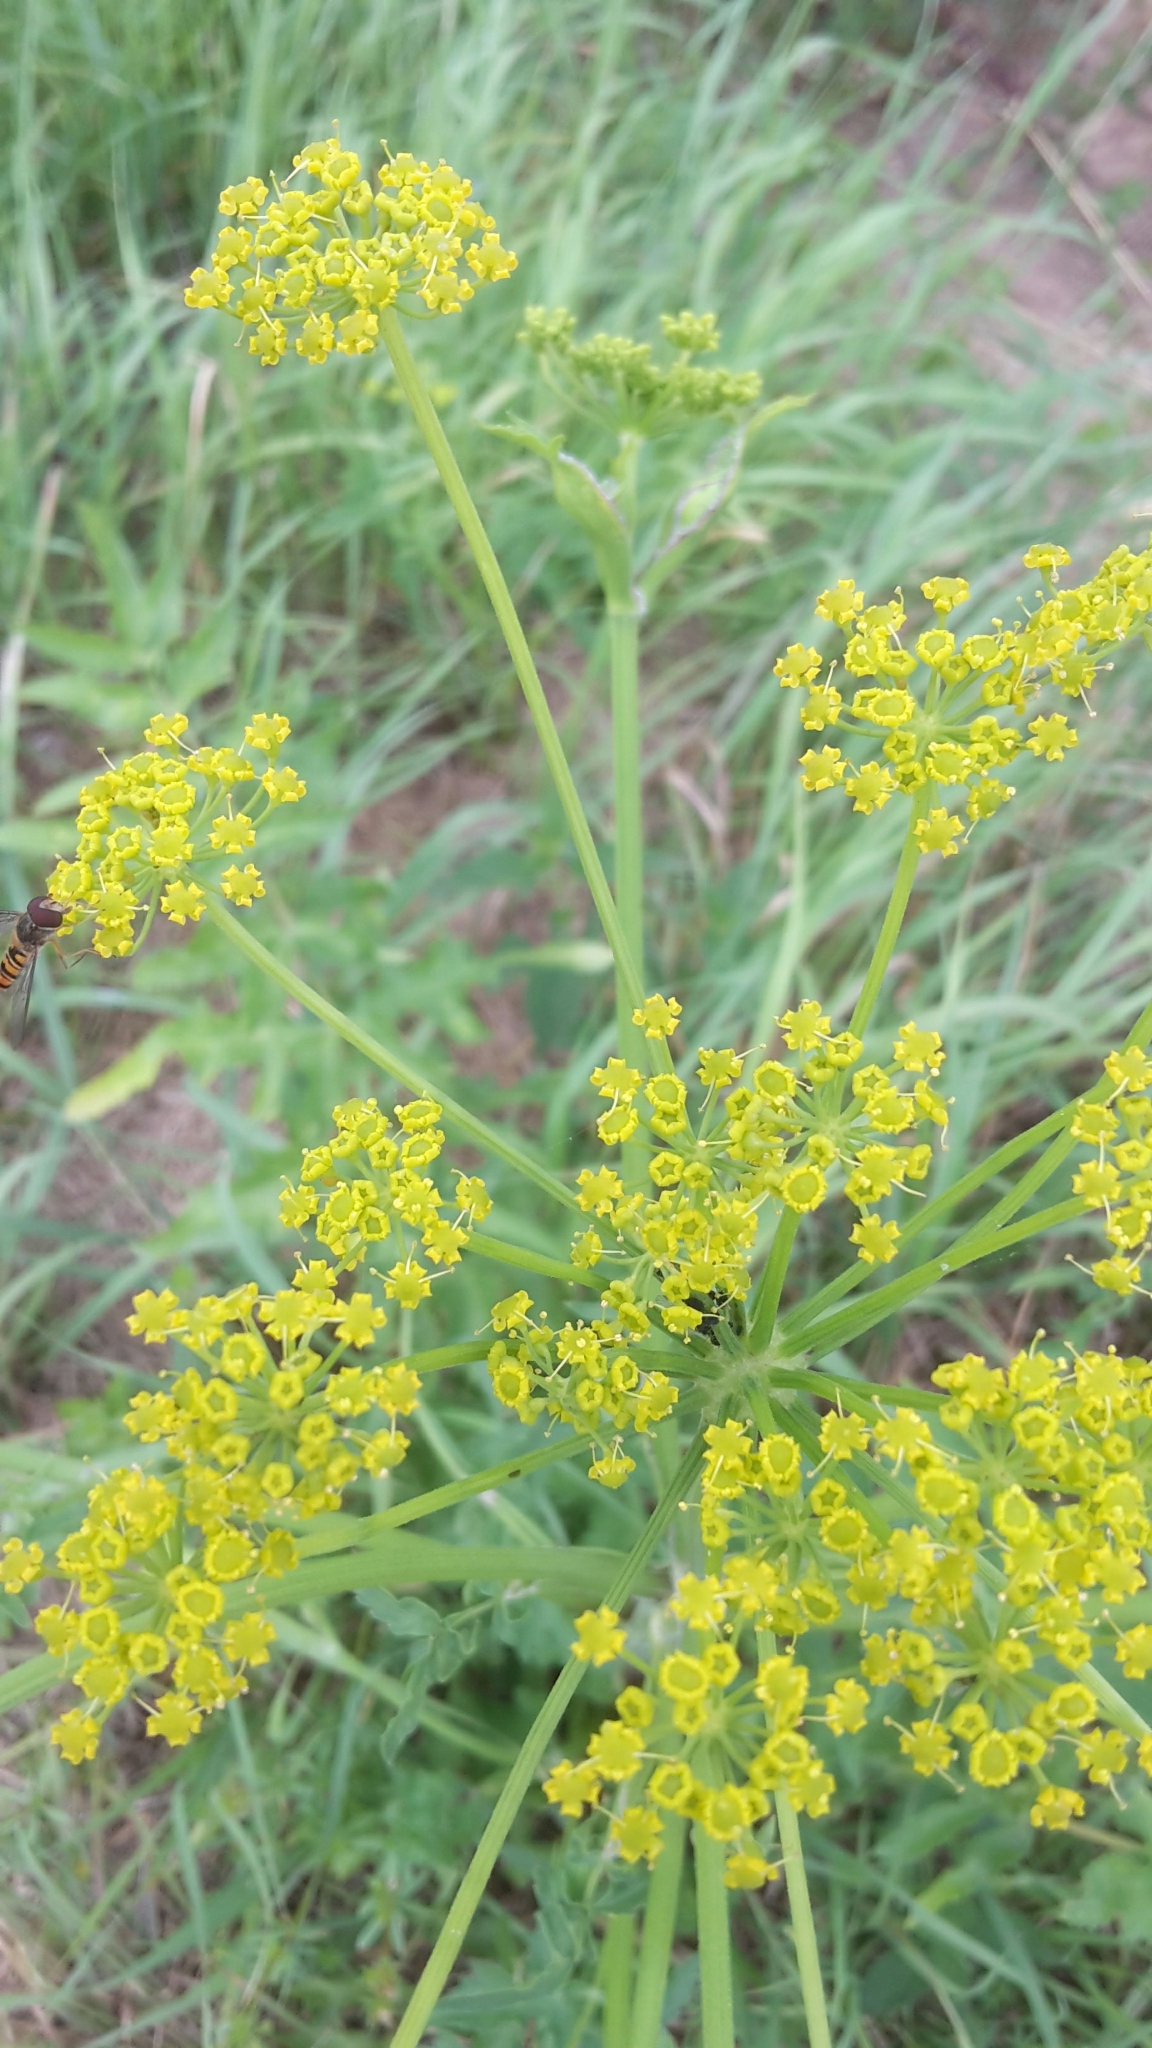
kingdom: Plantae
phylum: Tracheophyta
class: Magnoliopsida
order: Apiales
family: Apiaceae
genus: Pastinaca
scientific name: Pastinaca sativa
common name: Wild parsnip
